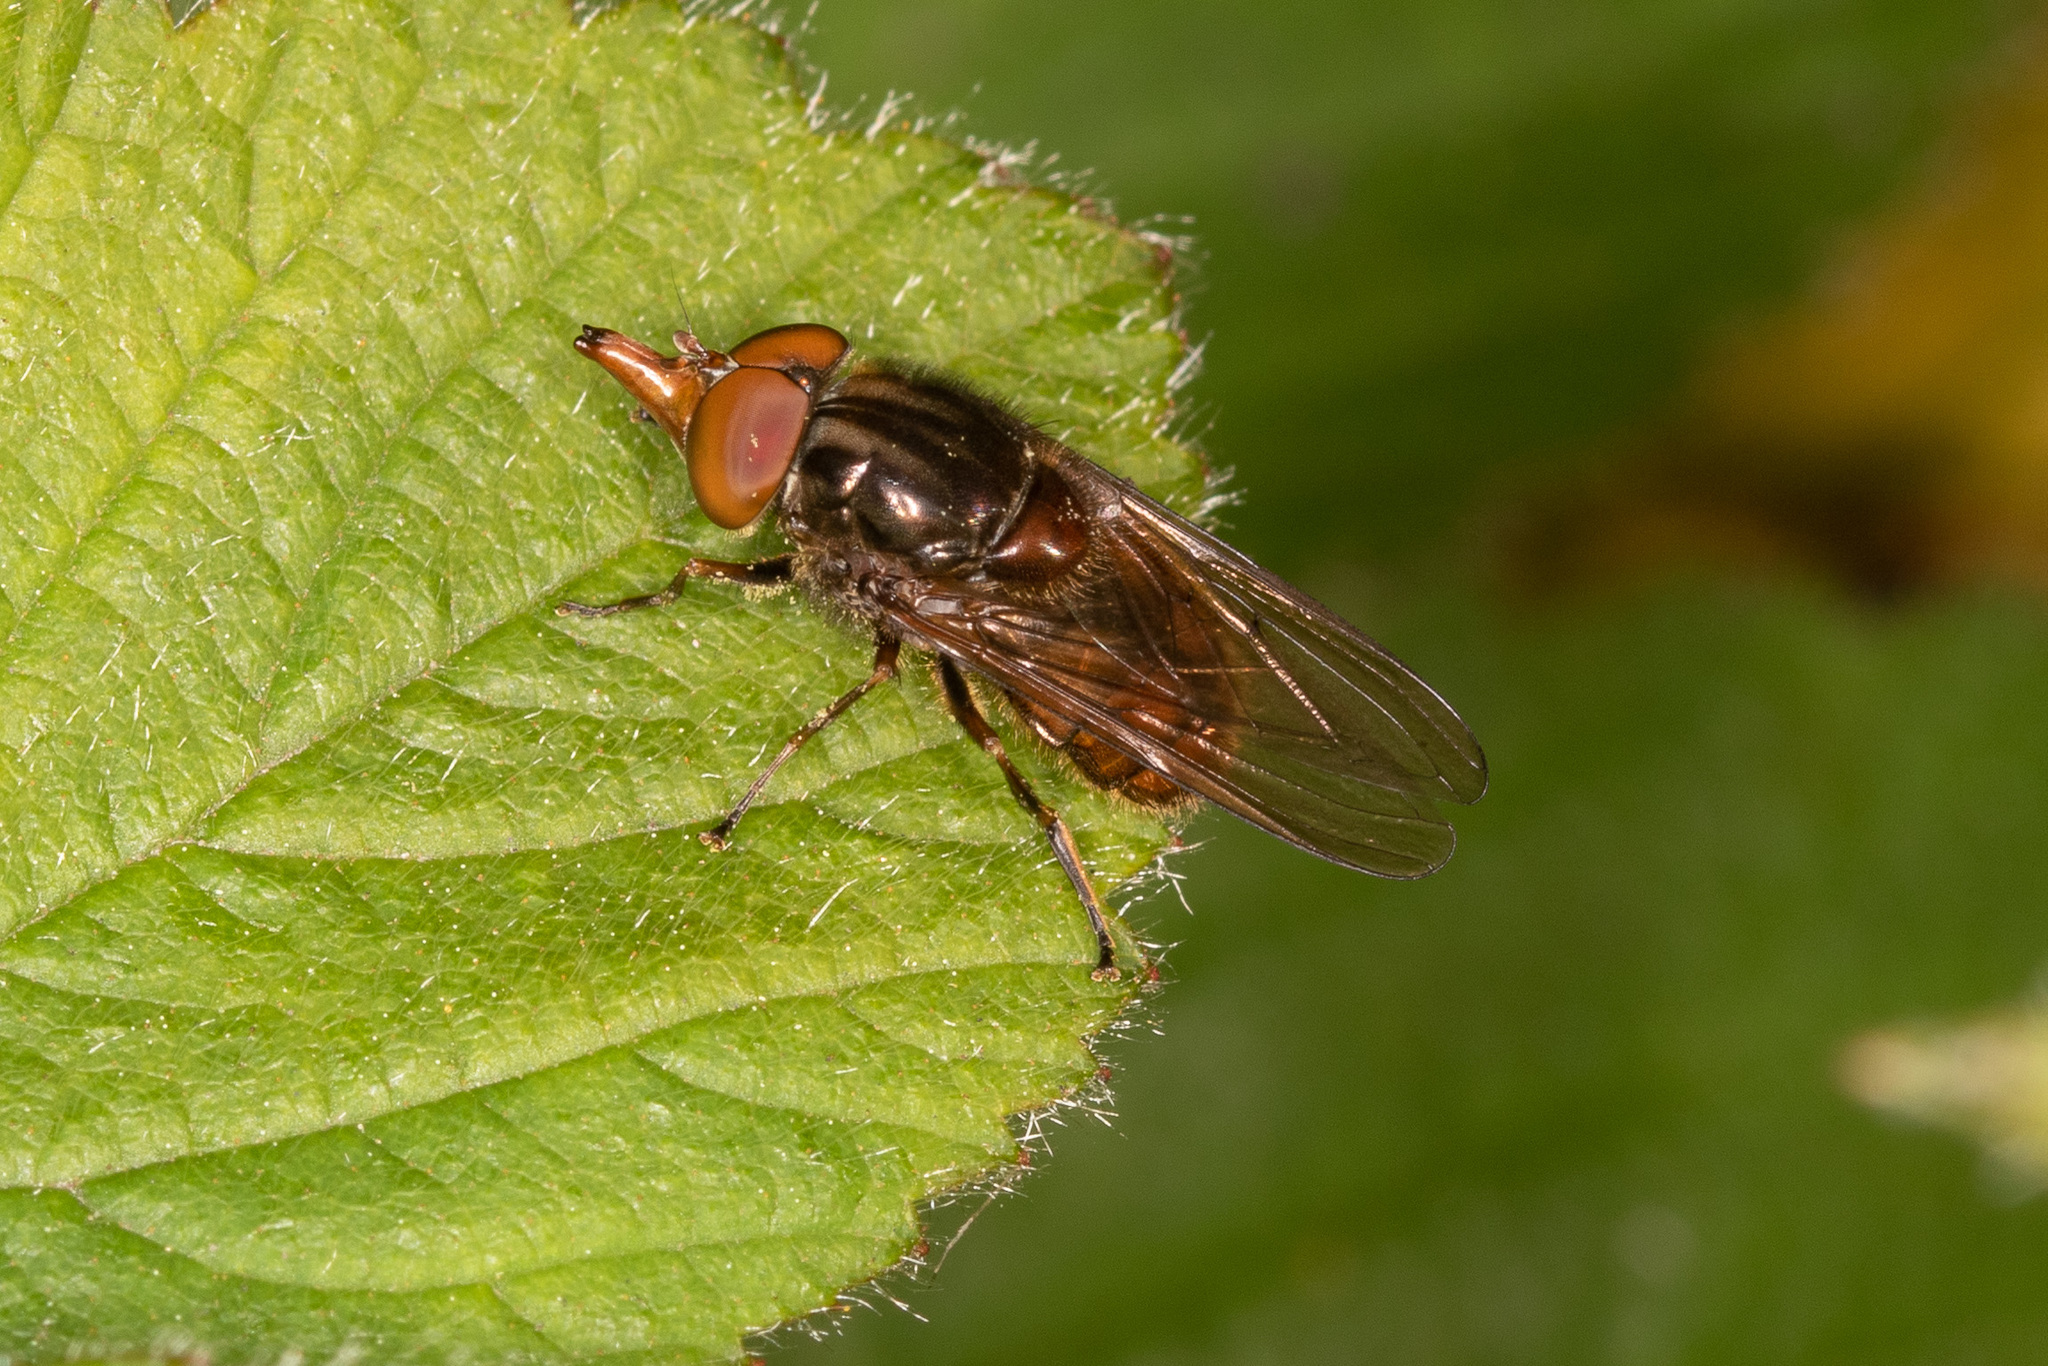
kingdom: Animalia
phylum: Arthropoda
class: Insecta
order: Diptera
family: Syrphidae
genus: Rhingia
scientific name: Rhingia campestris
